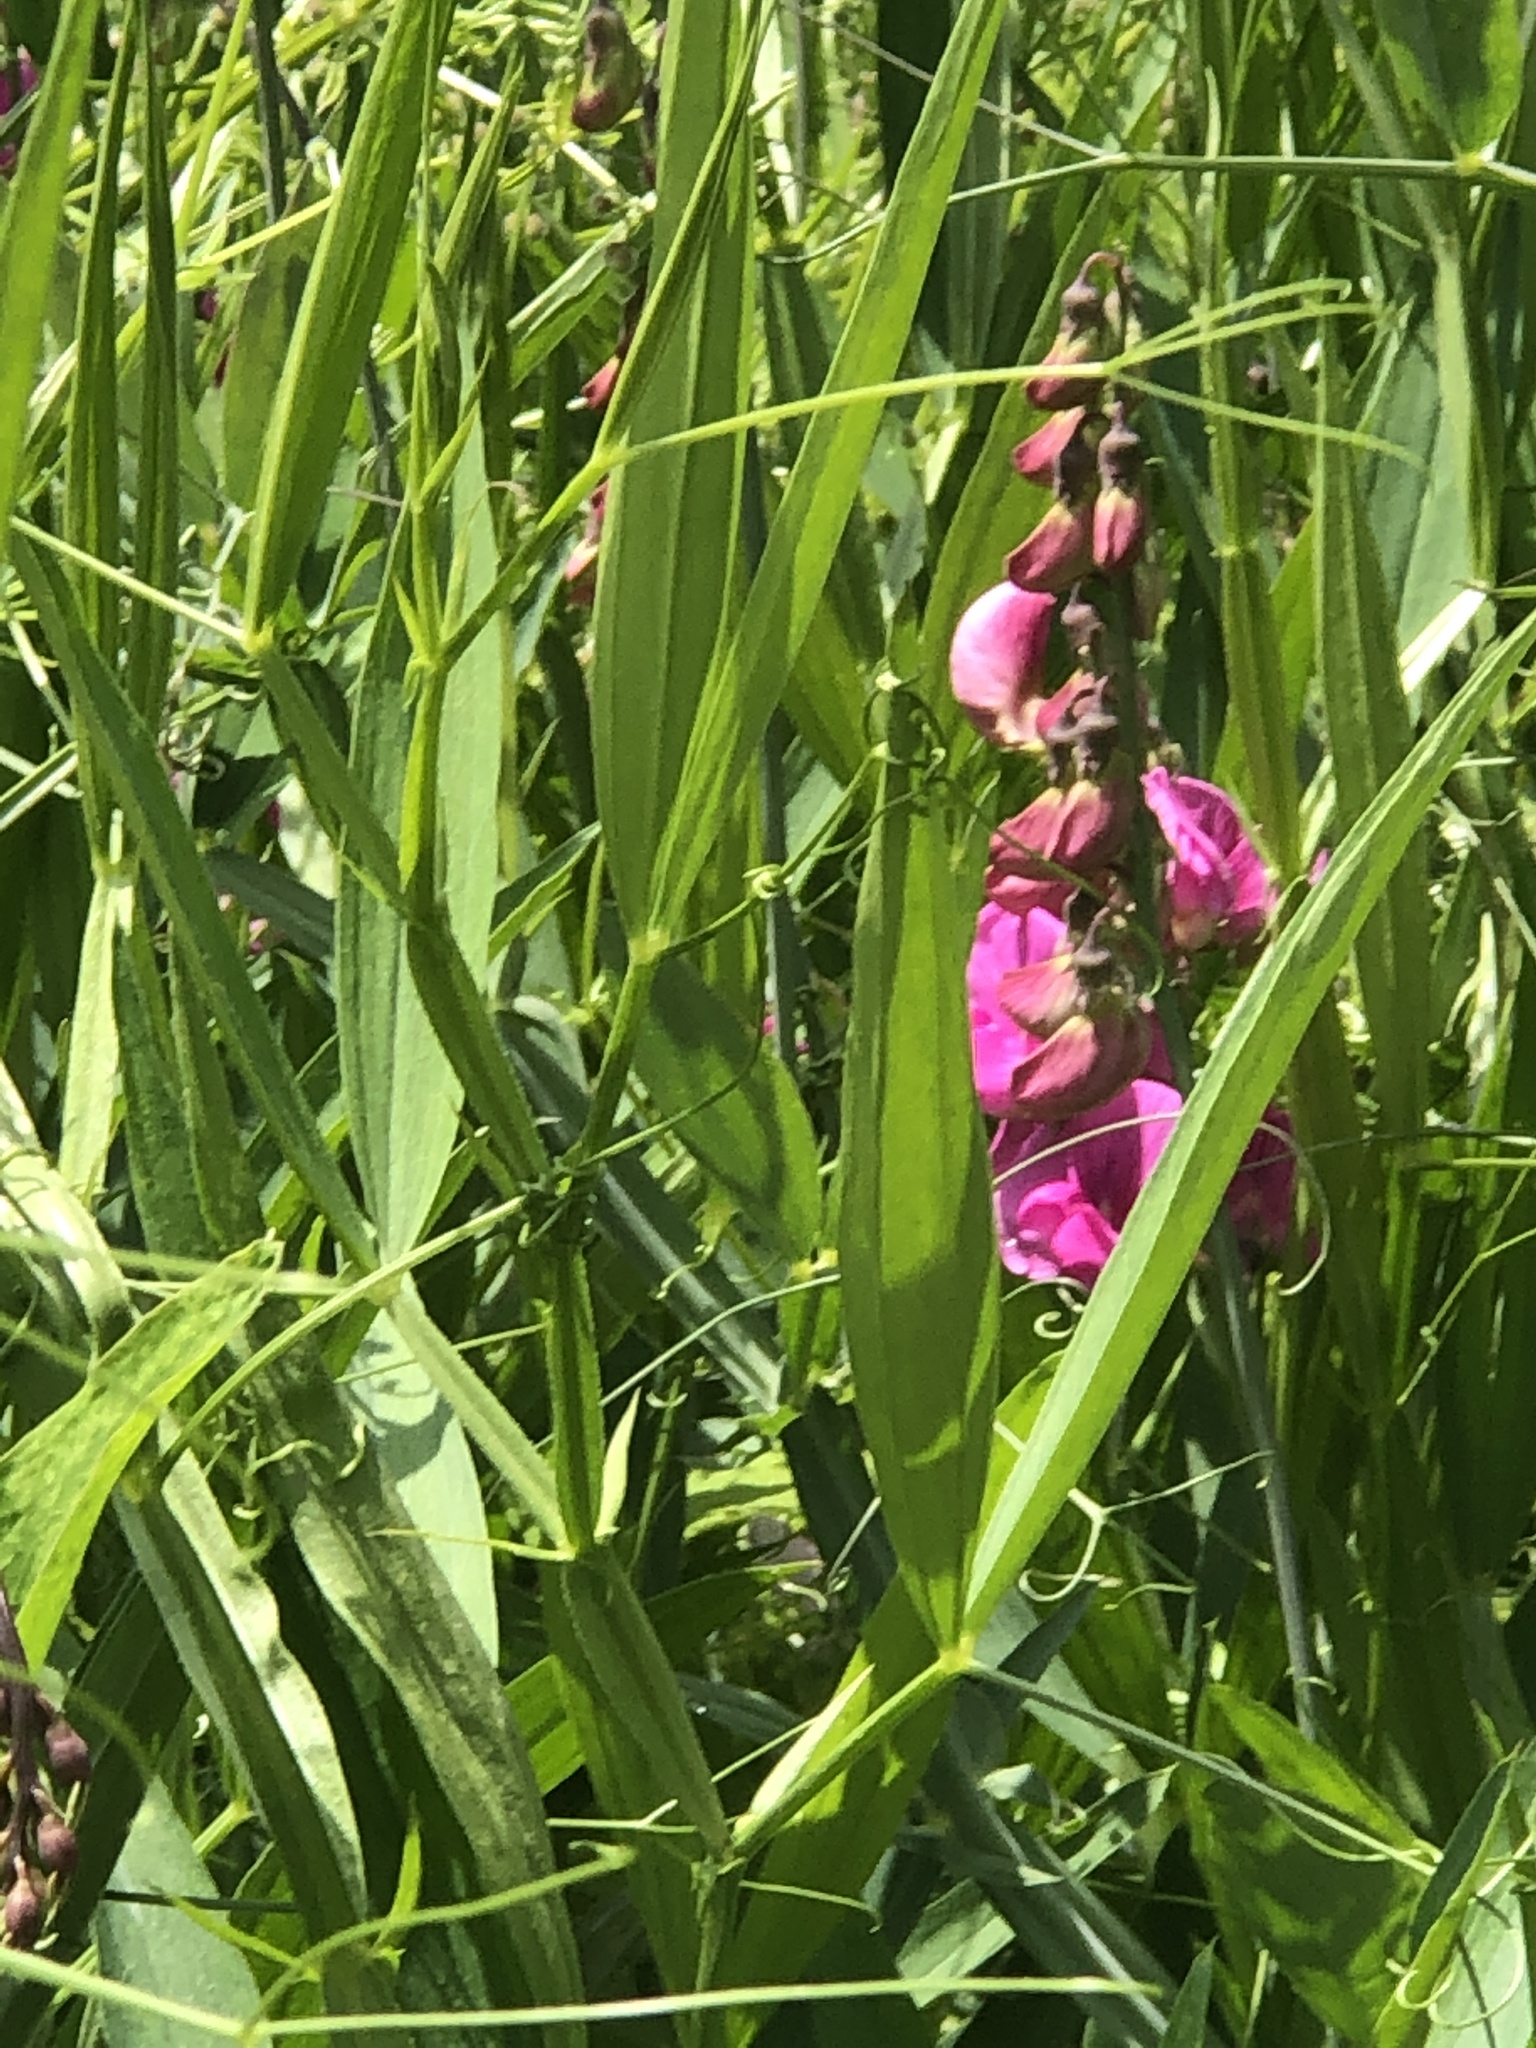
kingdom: Plantae
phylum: Tracheophyta
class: Magnoliopsida
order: Fabales
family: Fabaceae
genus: Lathyrus
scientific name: Lathyrus sylvestris
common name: Flat pea
